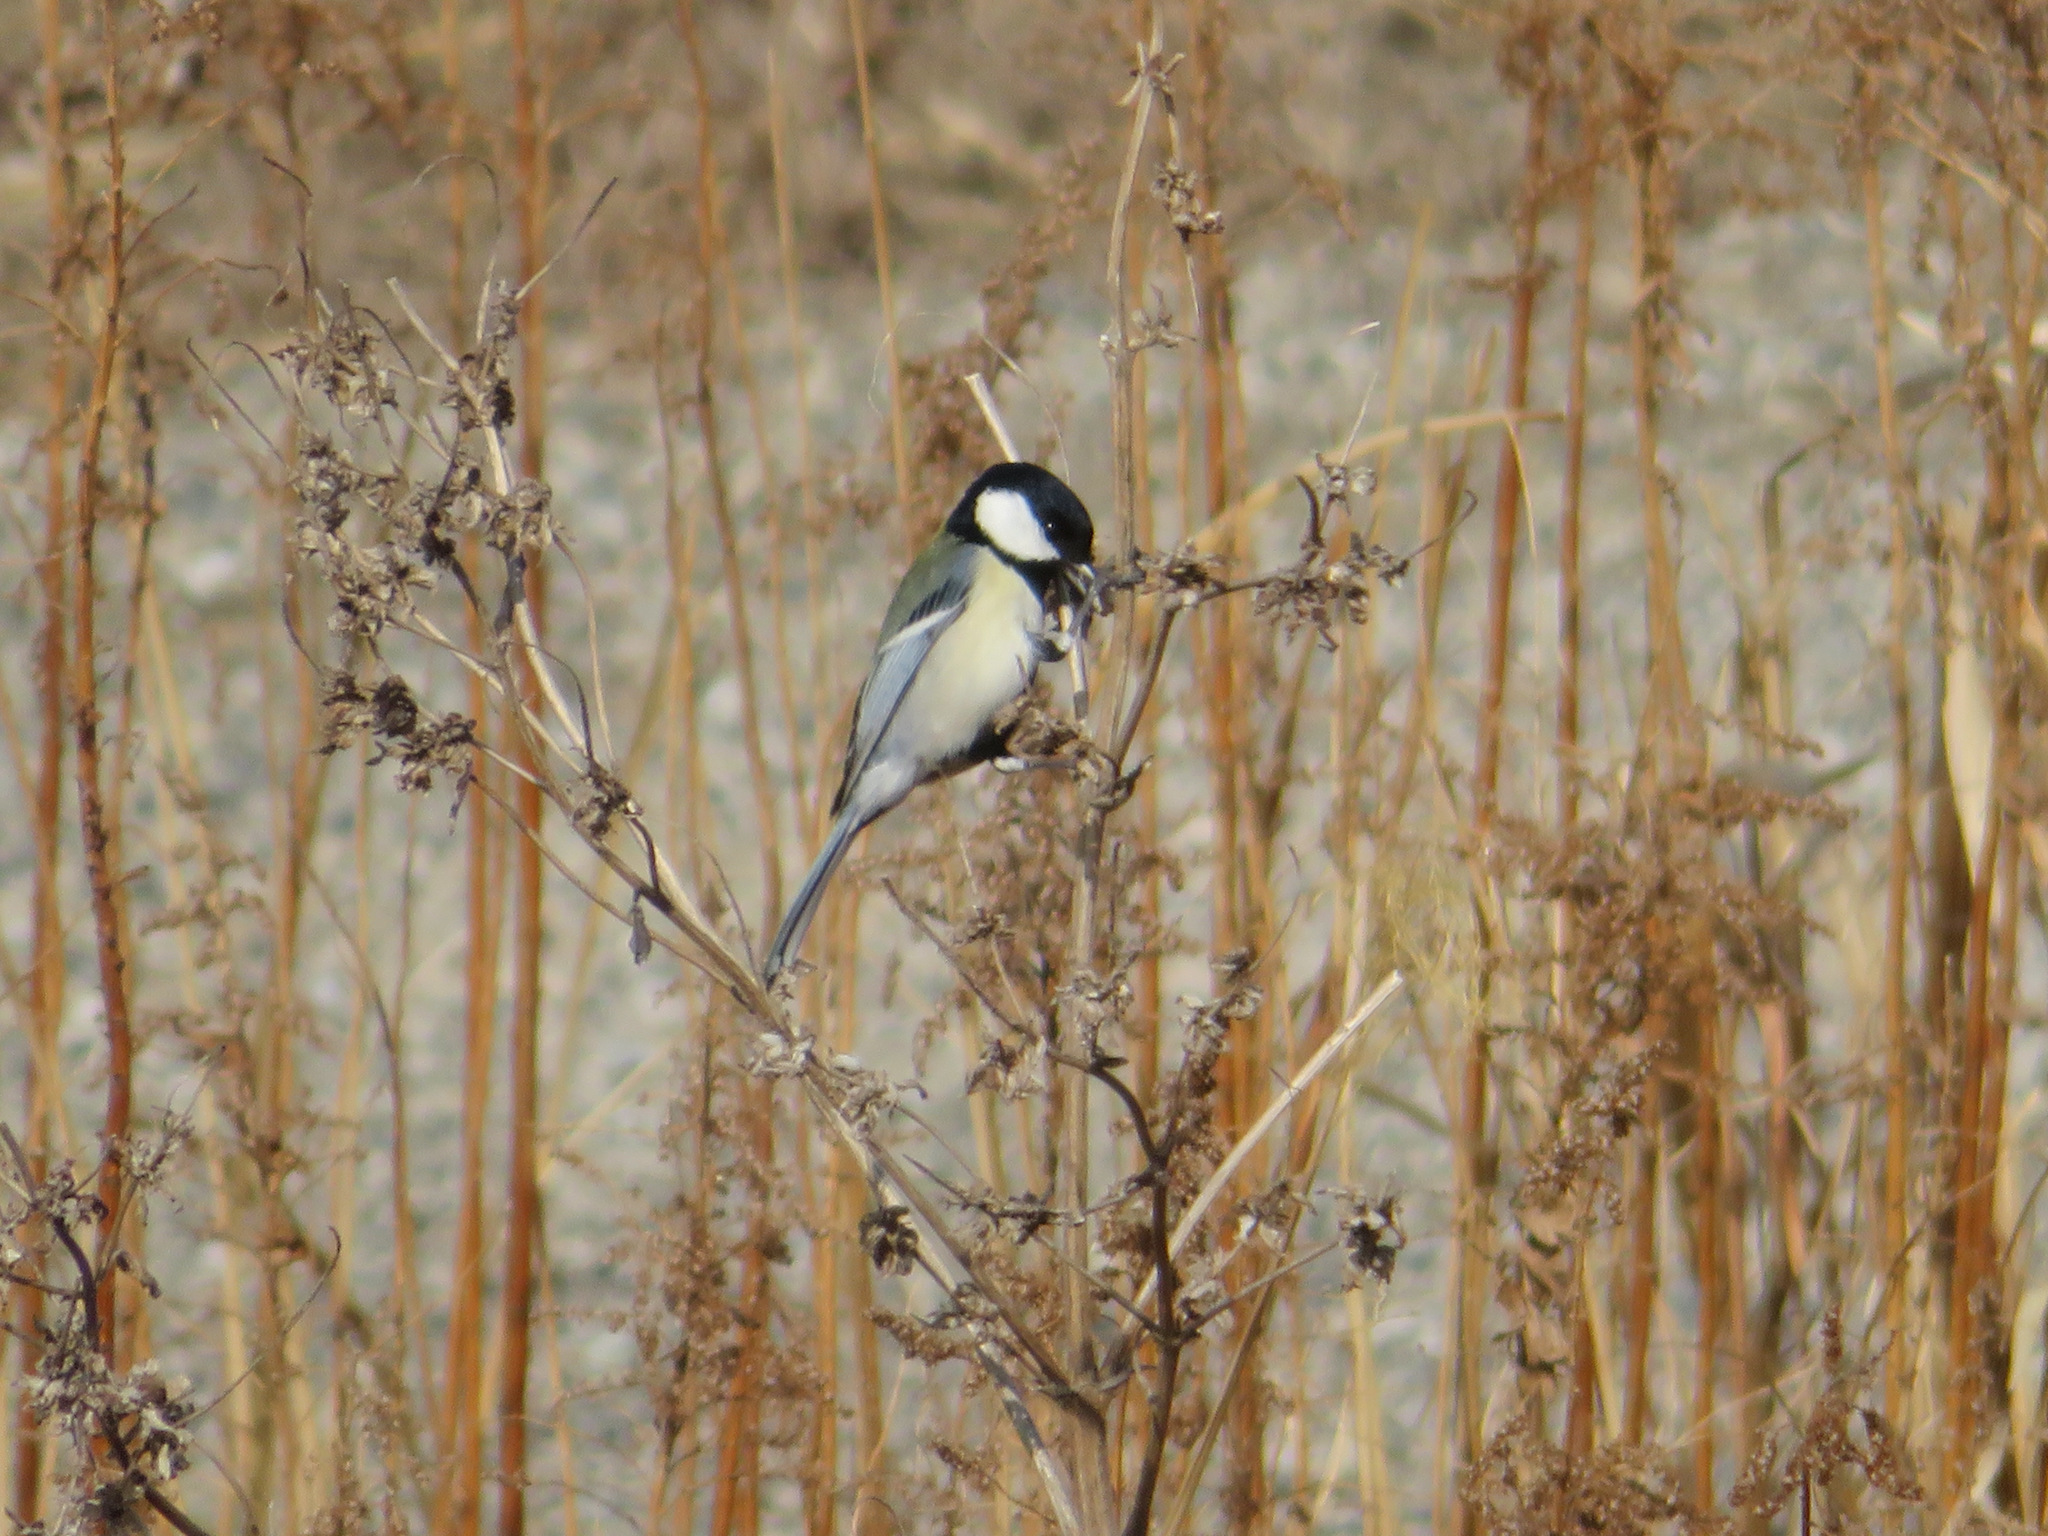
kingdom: Animalia
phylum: Chordata
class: Aves
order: Passeriformes
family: Paridae
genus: Parus
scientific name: Parus minor
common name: Japanese tit
